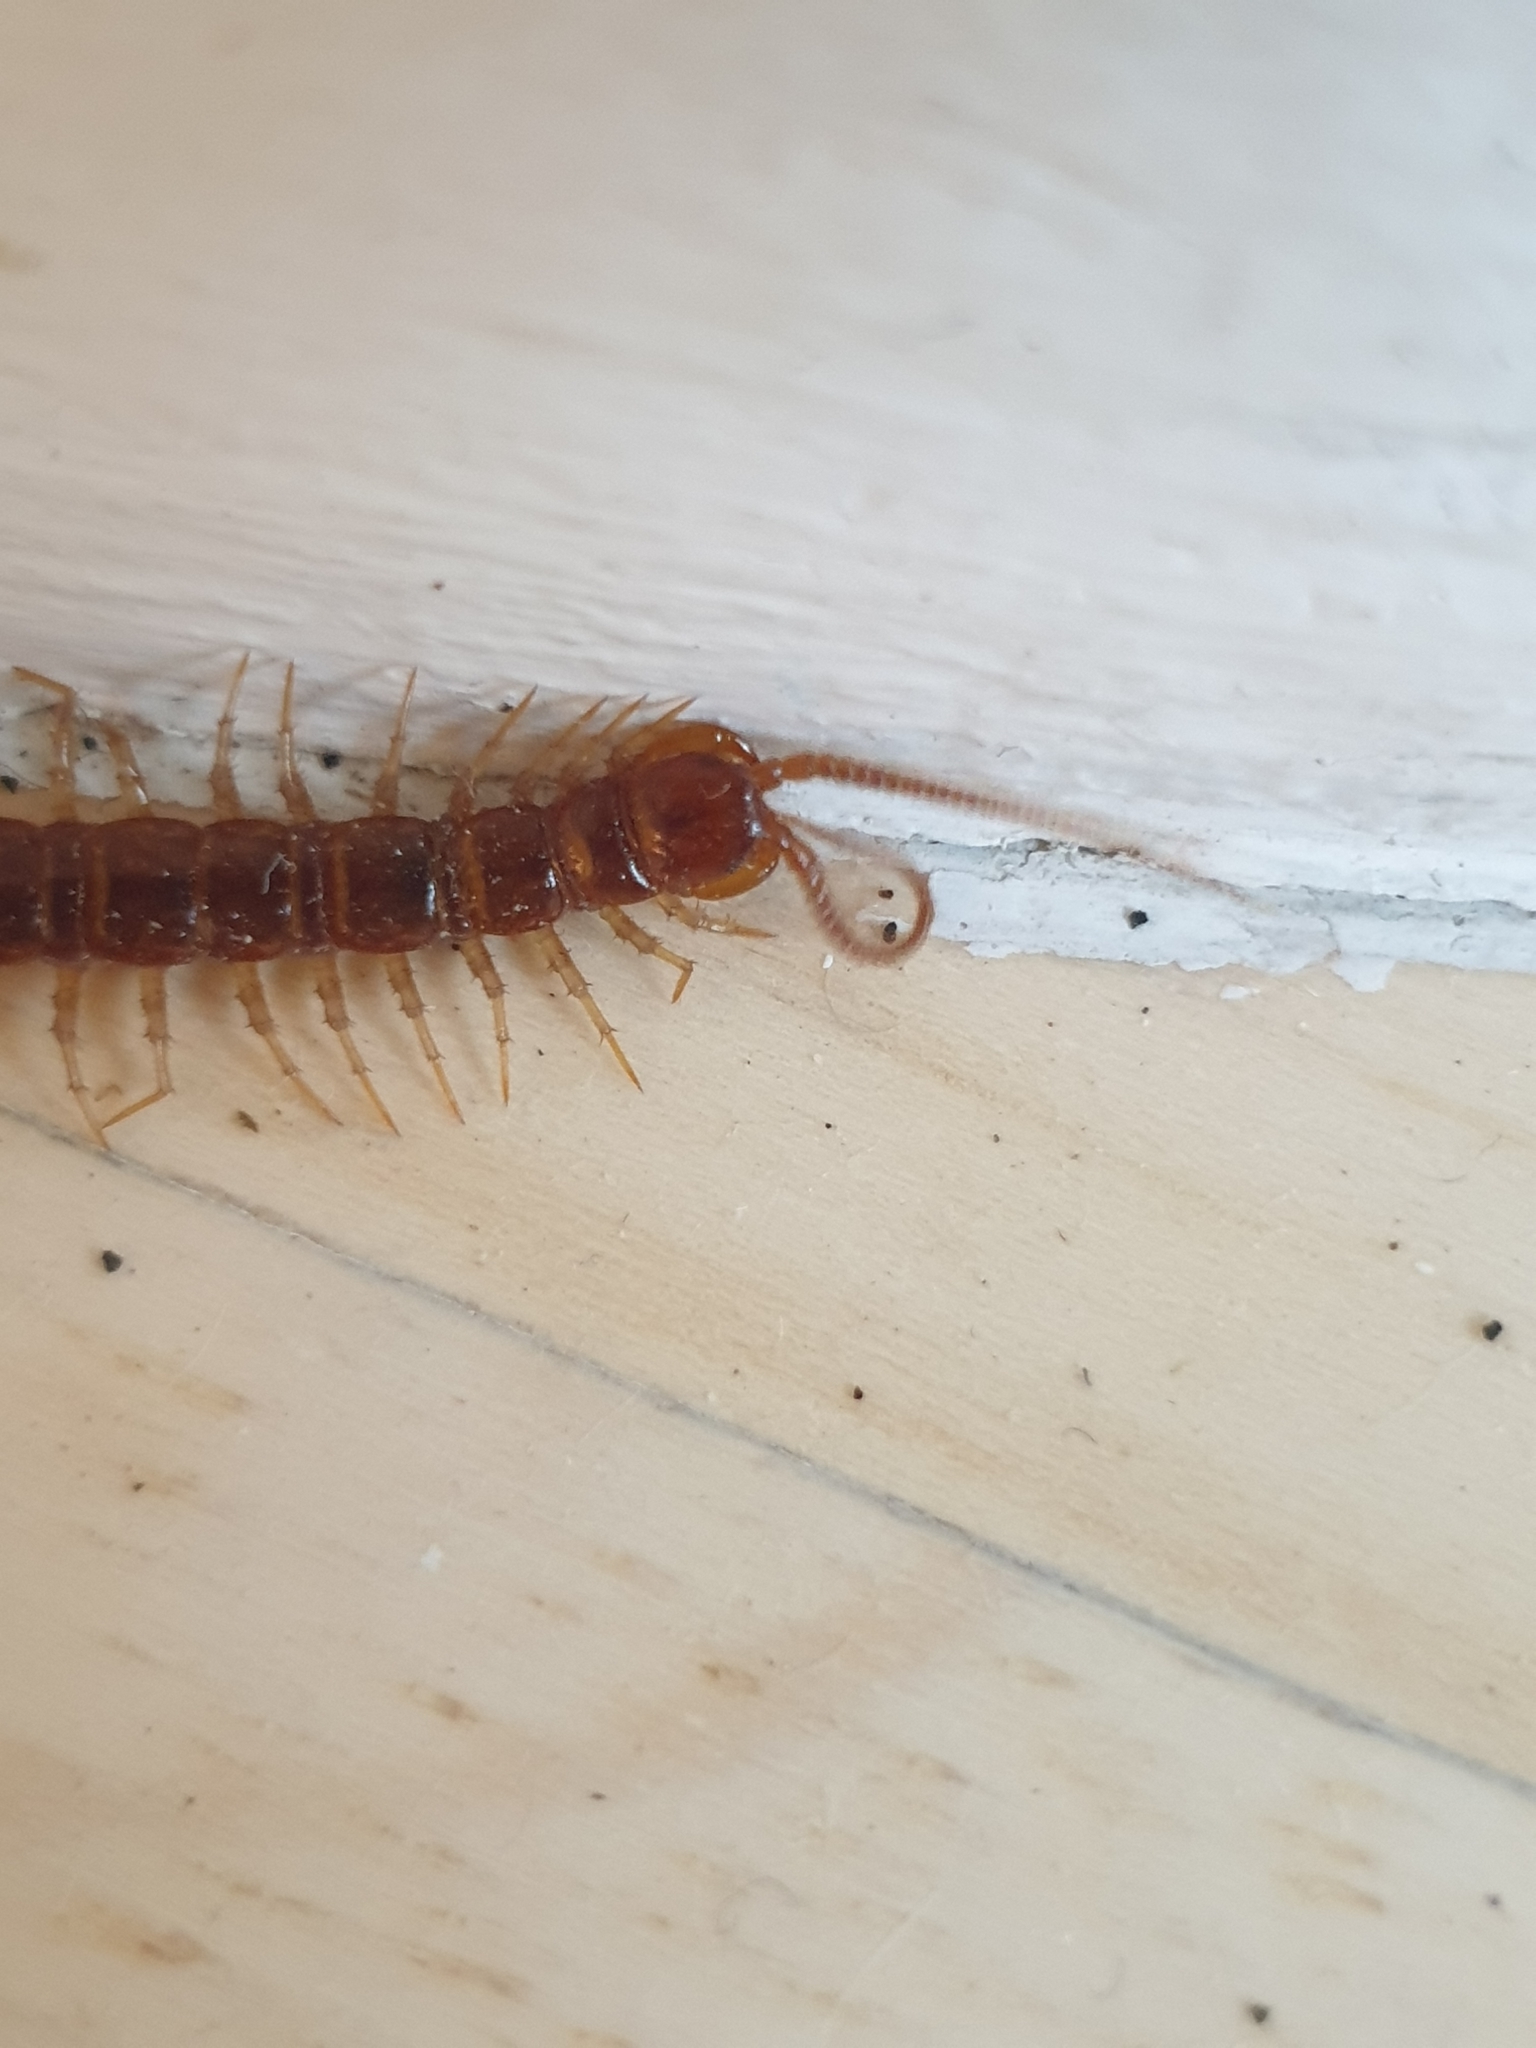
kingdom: Animalia
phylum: Arthropoda
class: Chilopoda
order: Lithobiomorpha
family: Lithobiidae
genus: Lithobius
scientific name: Lithobius forficatus
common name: Centipede
